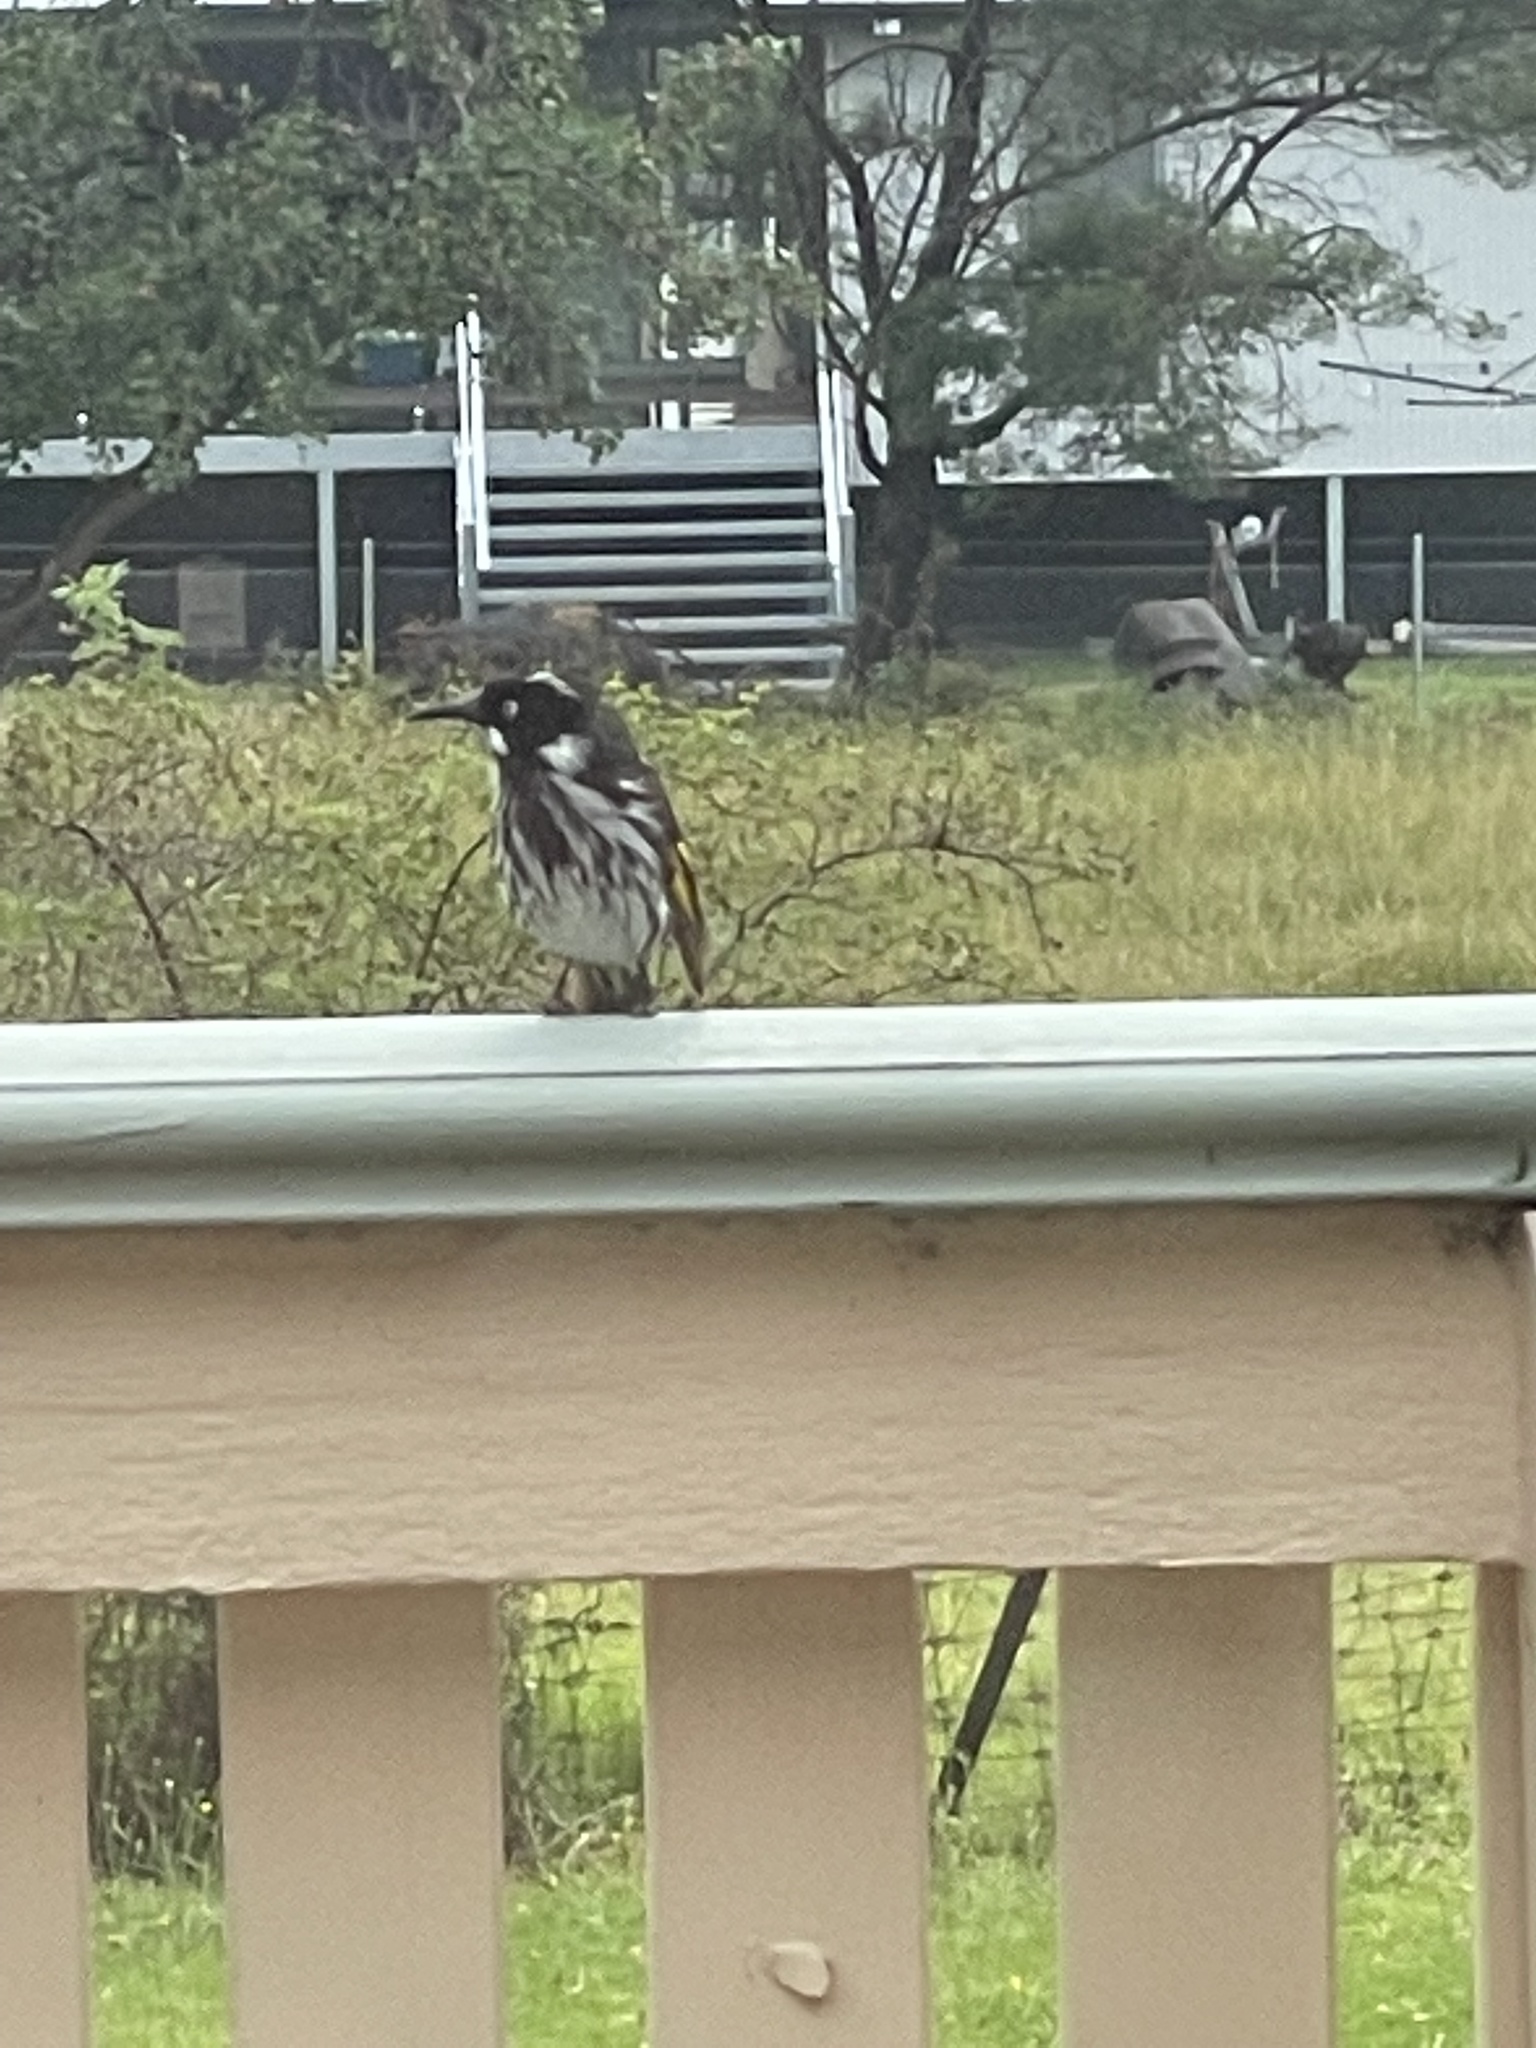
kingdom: Animalia
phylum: Chordata
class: Aves
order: Passeriformes
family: Meliphagidae
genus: Phylidonyris
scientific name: Phylidonyris novaehollandiae
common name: New holland honeyeater
